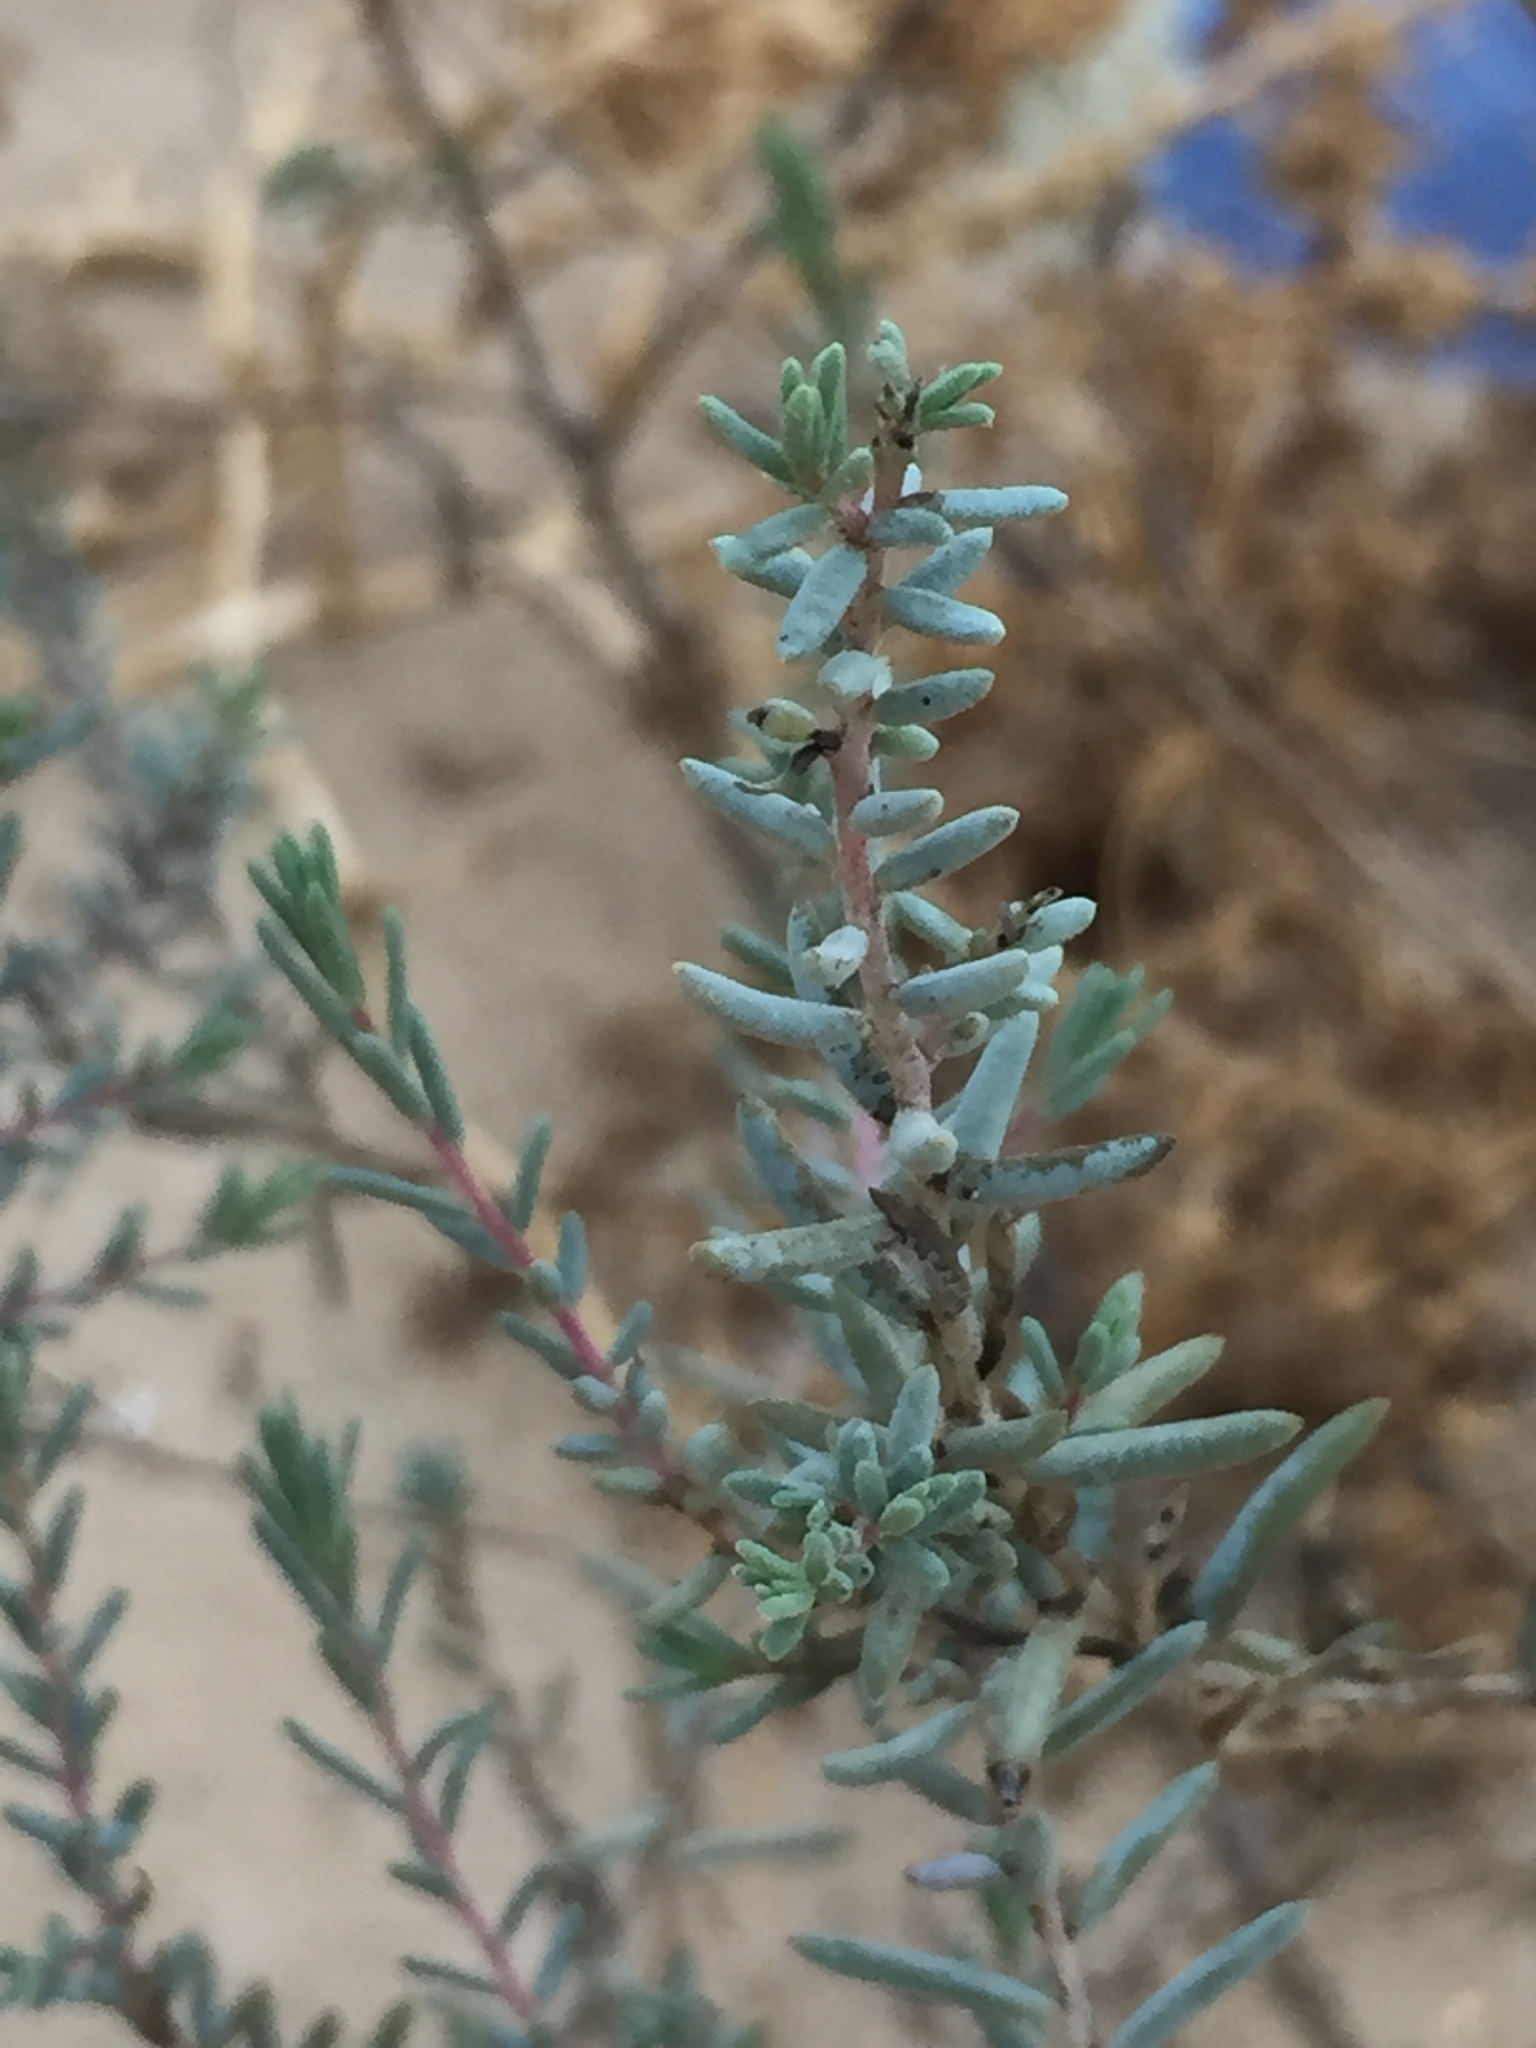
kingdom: Plantae
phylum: Tracheophyta
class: Magnoliopsida
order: Caryophyllales
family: Amaranthaceae
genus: Suaeda
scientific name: Suaeda nigra
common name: Bush seepweed
